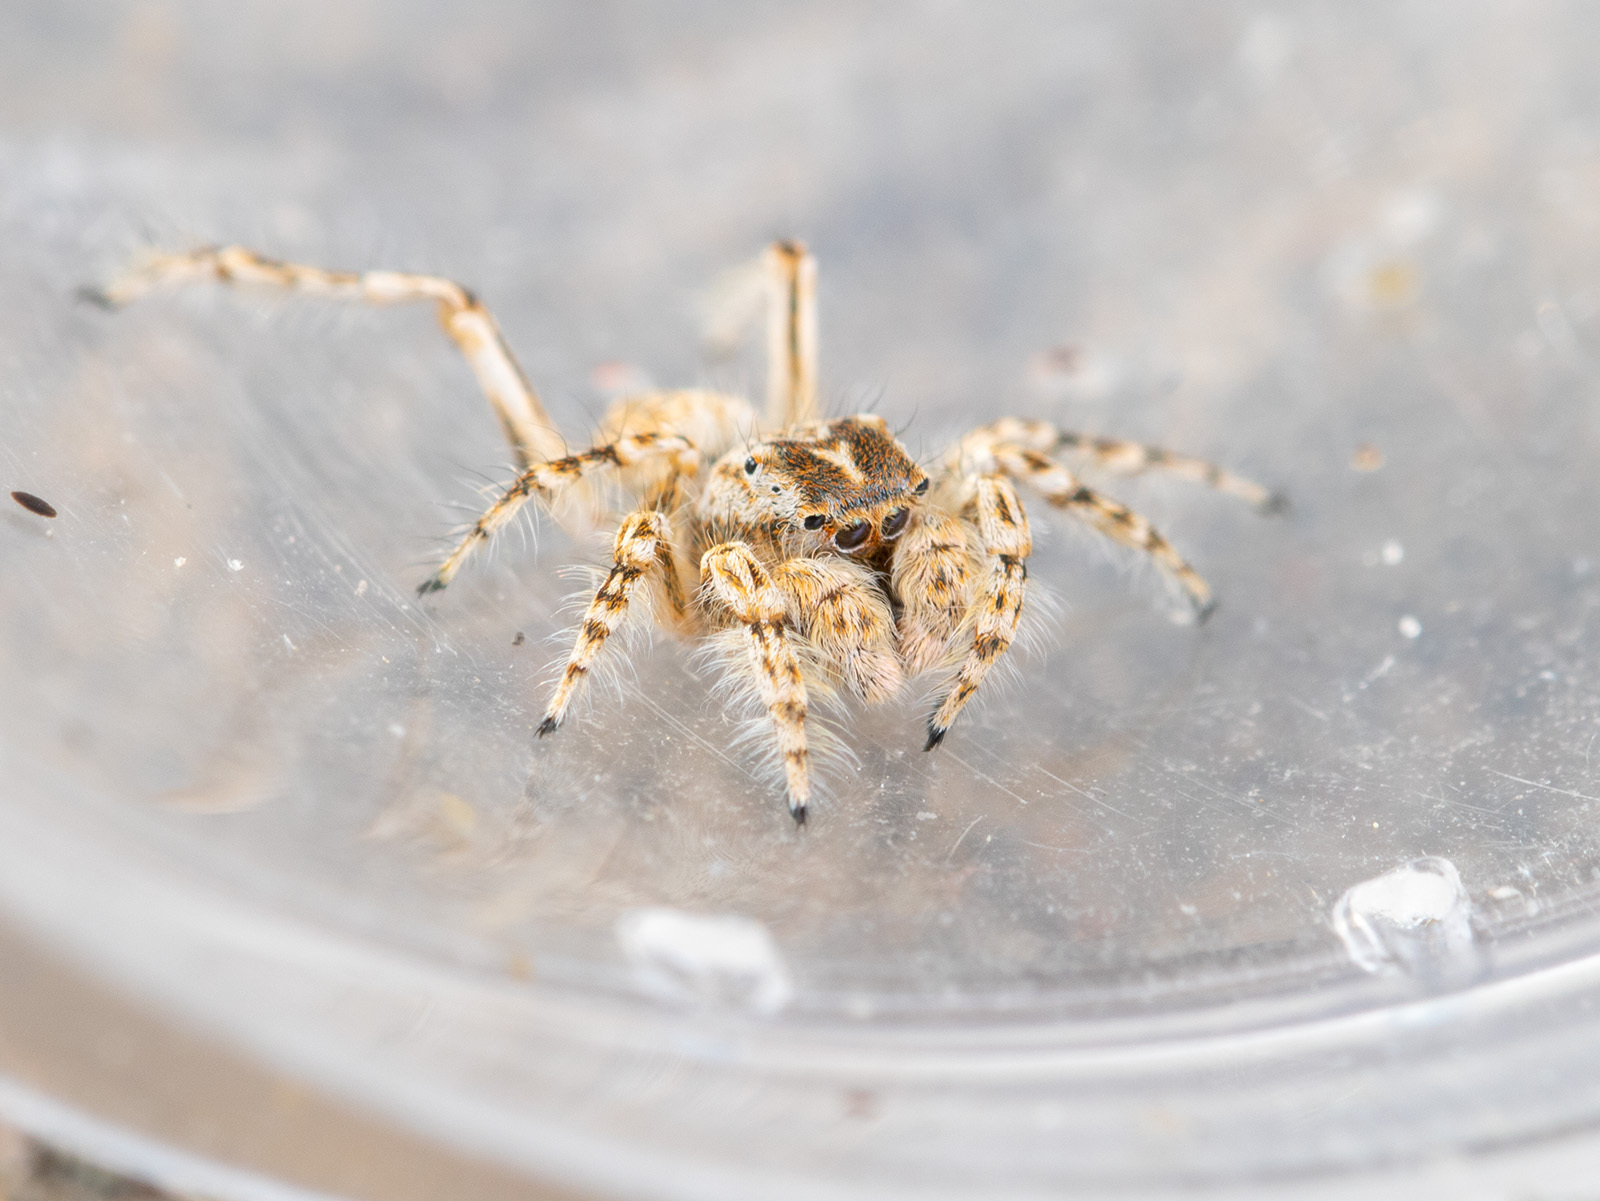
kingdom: Animalia
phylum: Arthropoda
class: Arachnida
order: Araneae
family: Salticidae
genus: Yllenus
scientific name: Yllenus turkestanicus
